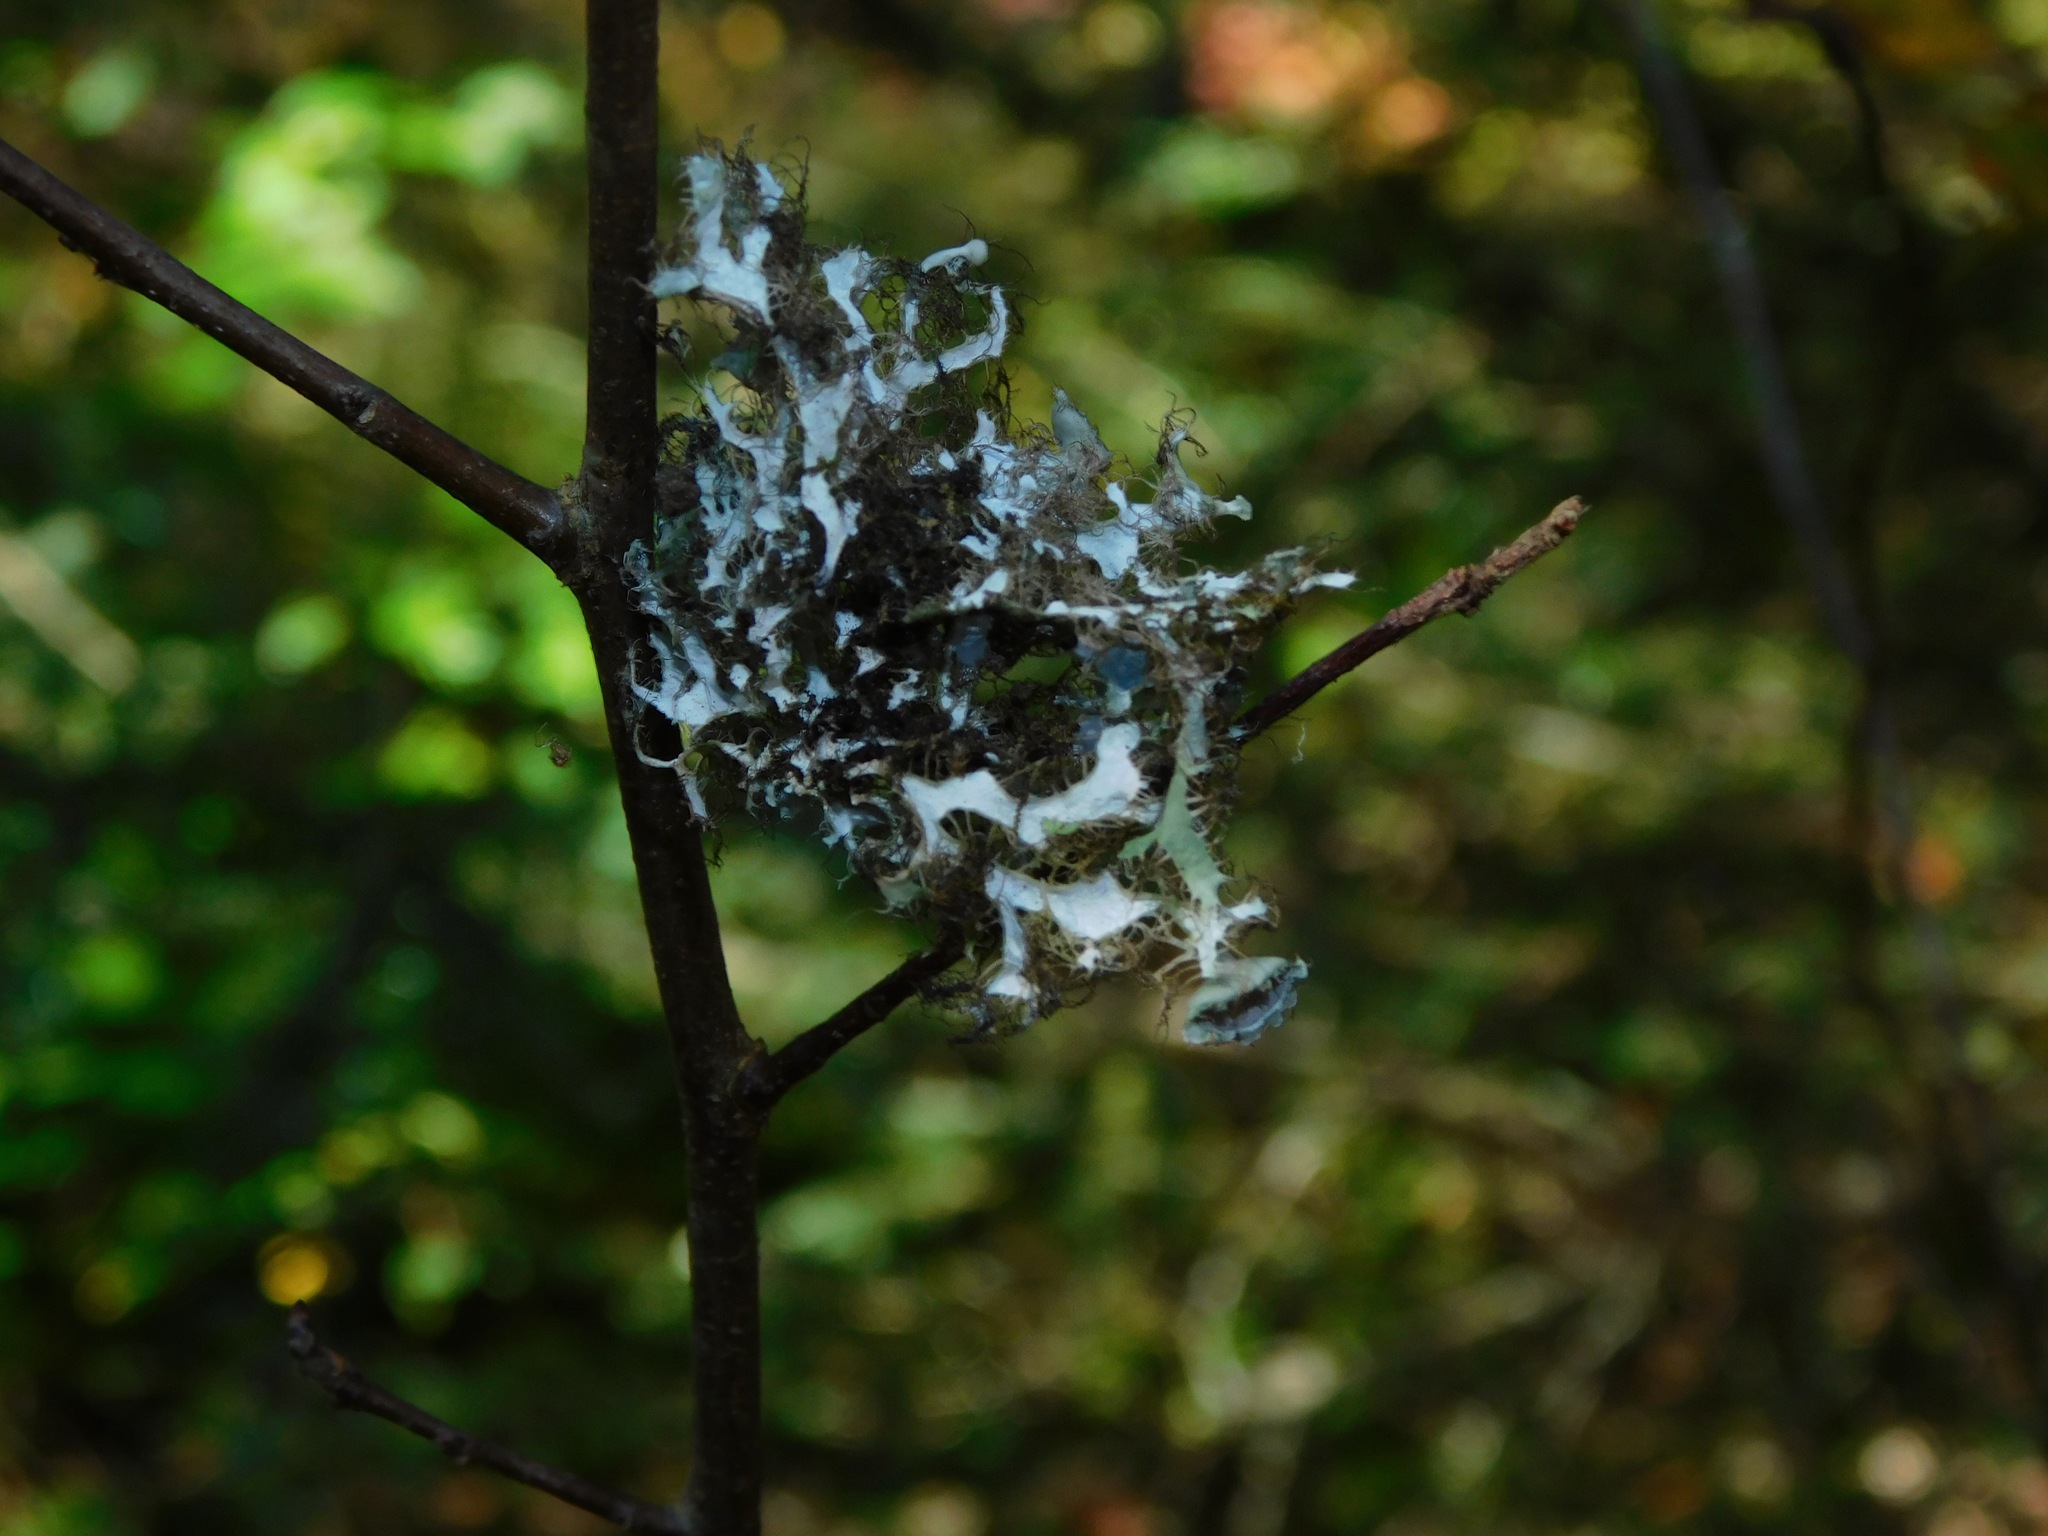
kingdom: Fungi
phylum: Ascomycota
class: Lecanoromycetes
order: Caliciales
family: Physciaceae
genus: Heterodermia
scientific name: Heterodermia echinata
